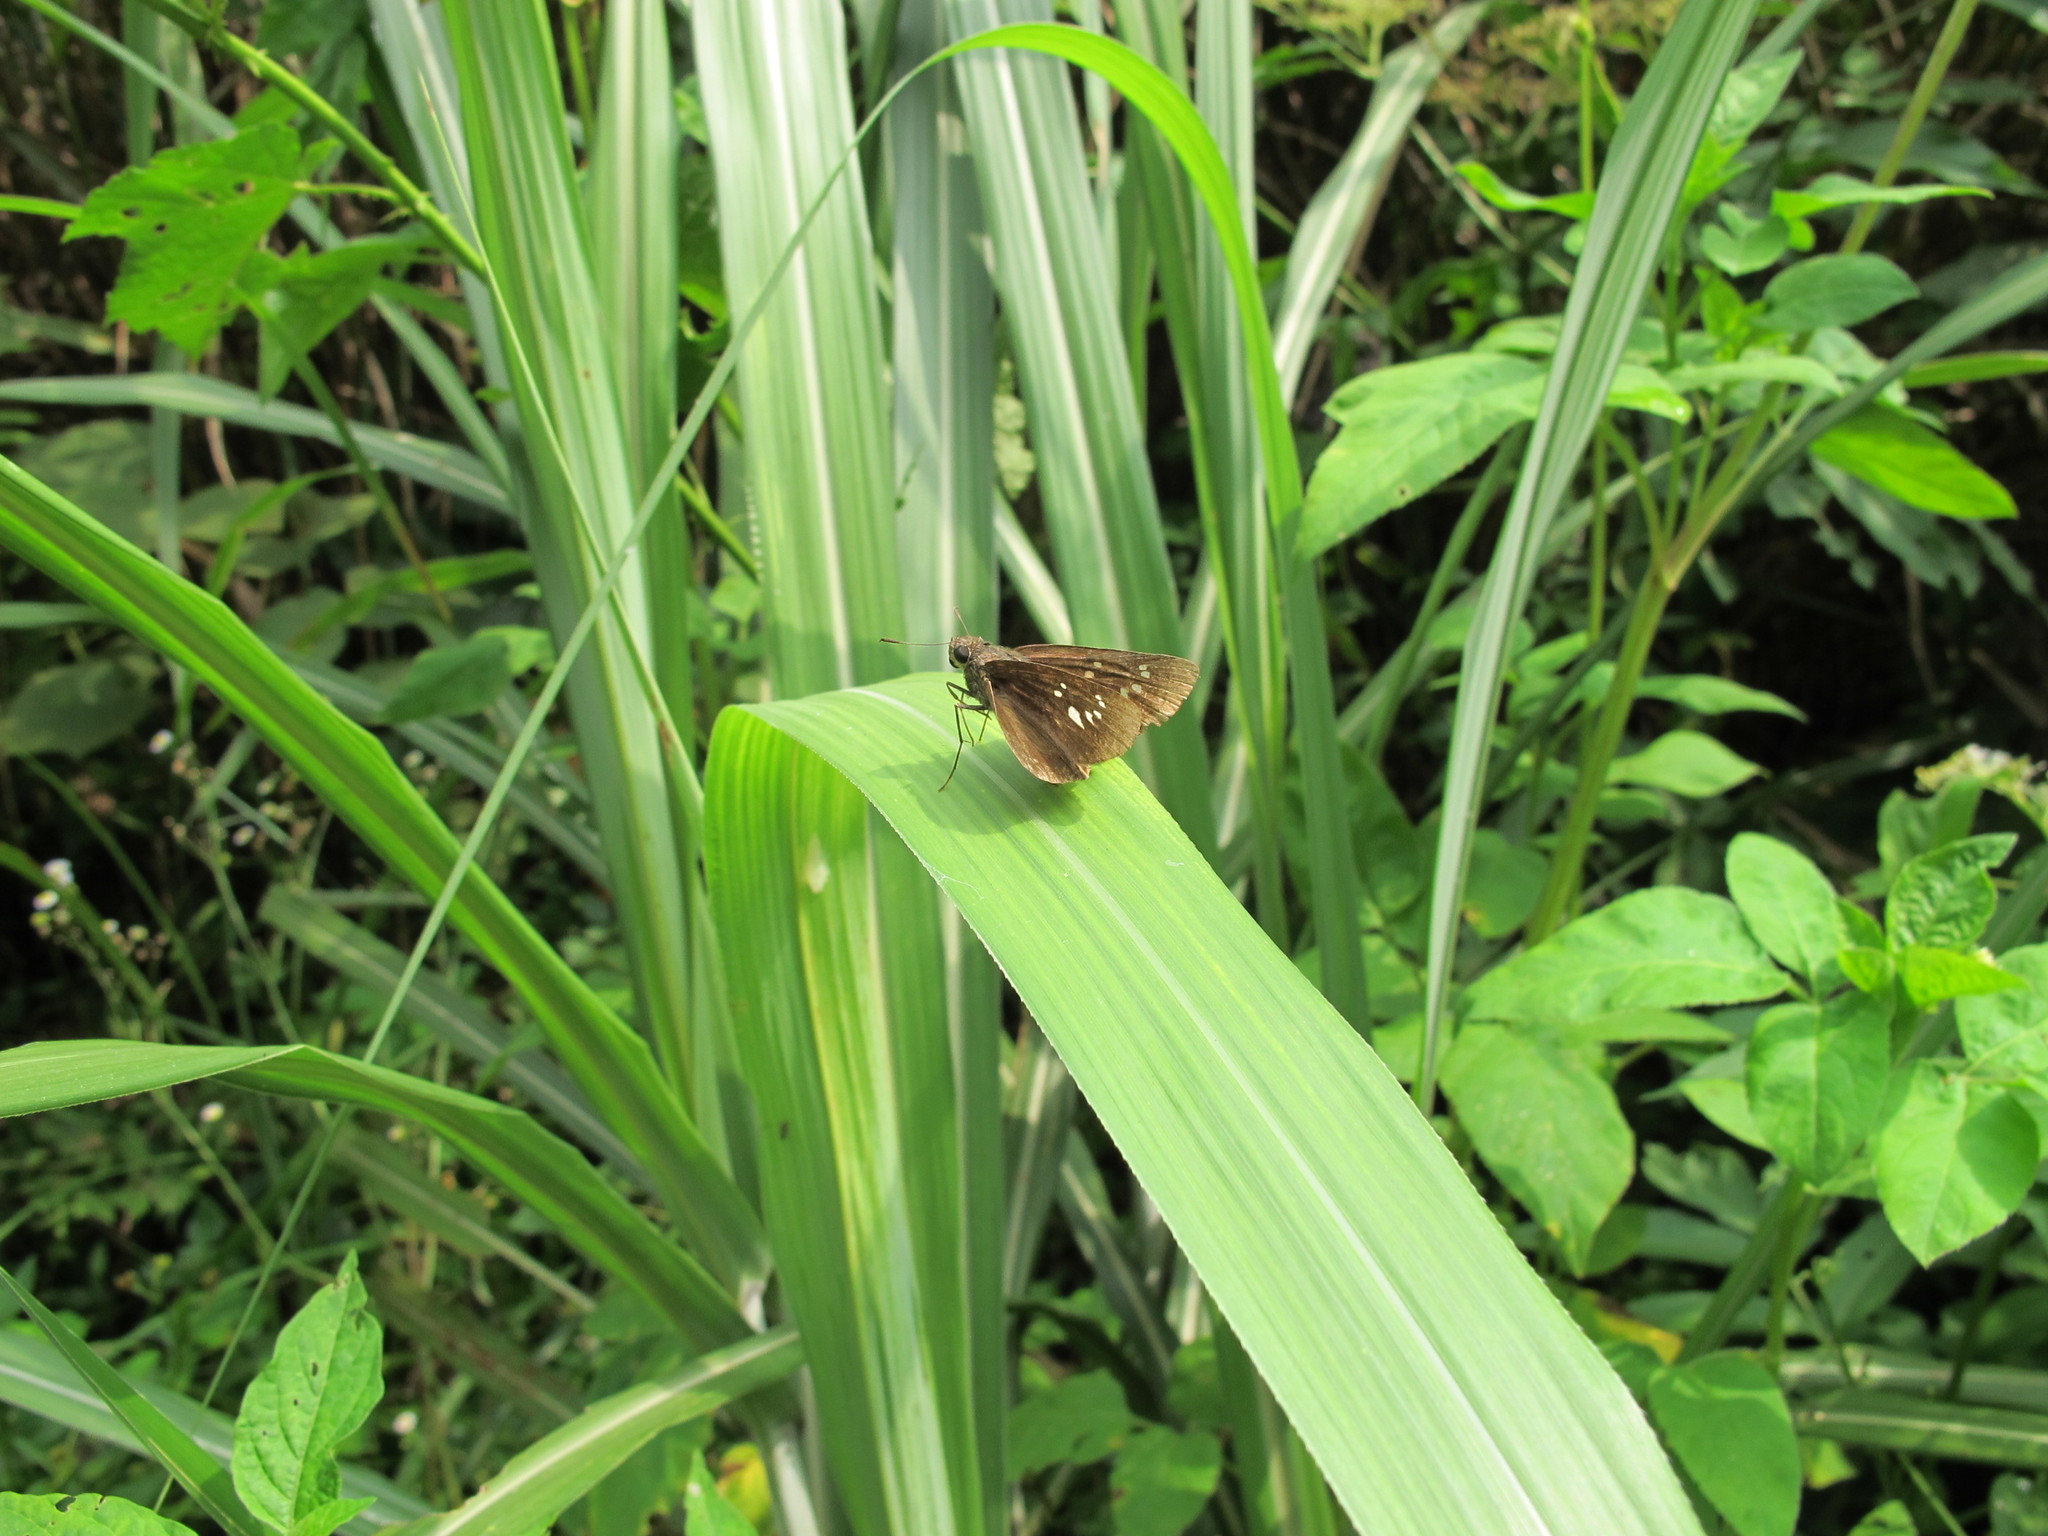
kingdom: Animalia
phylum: Arthropoda
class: Insecta
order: Lepidoptera
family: Hesperiidae
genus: Caltoris
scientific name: Caltoris cahira
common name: Colon swift
